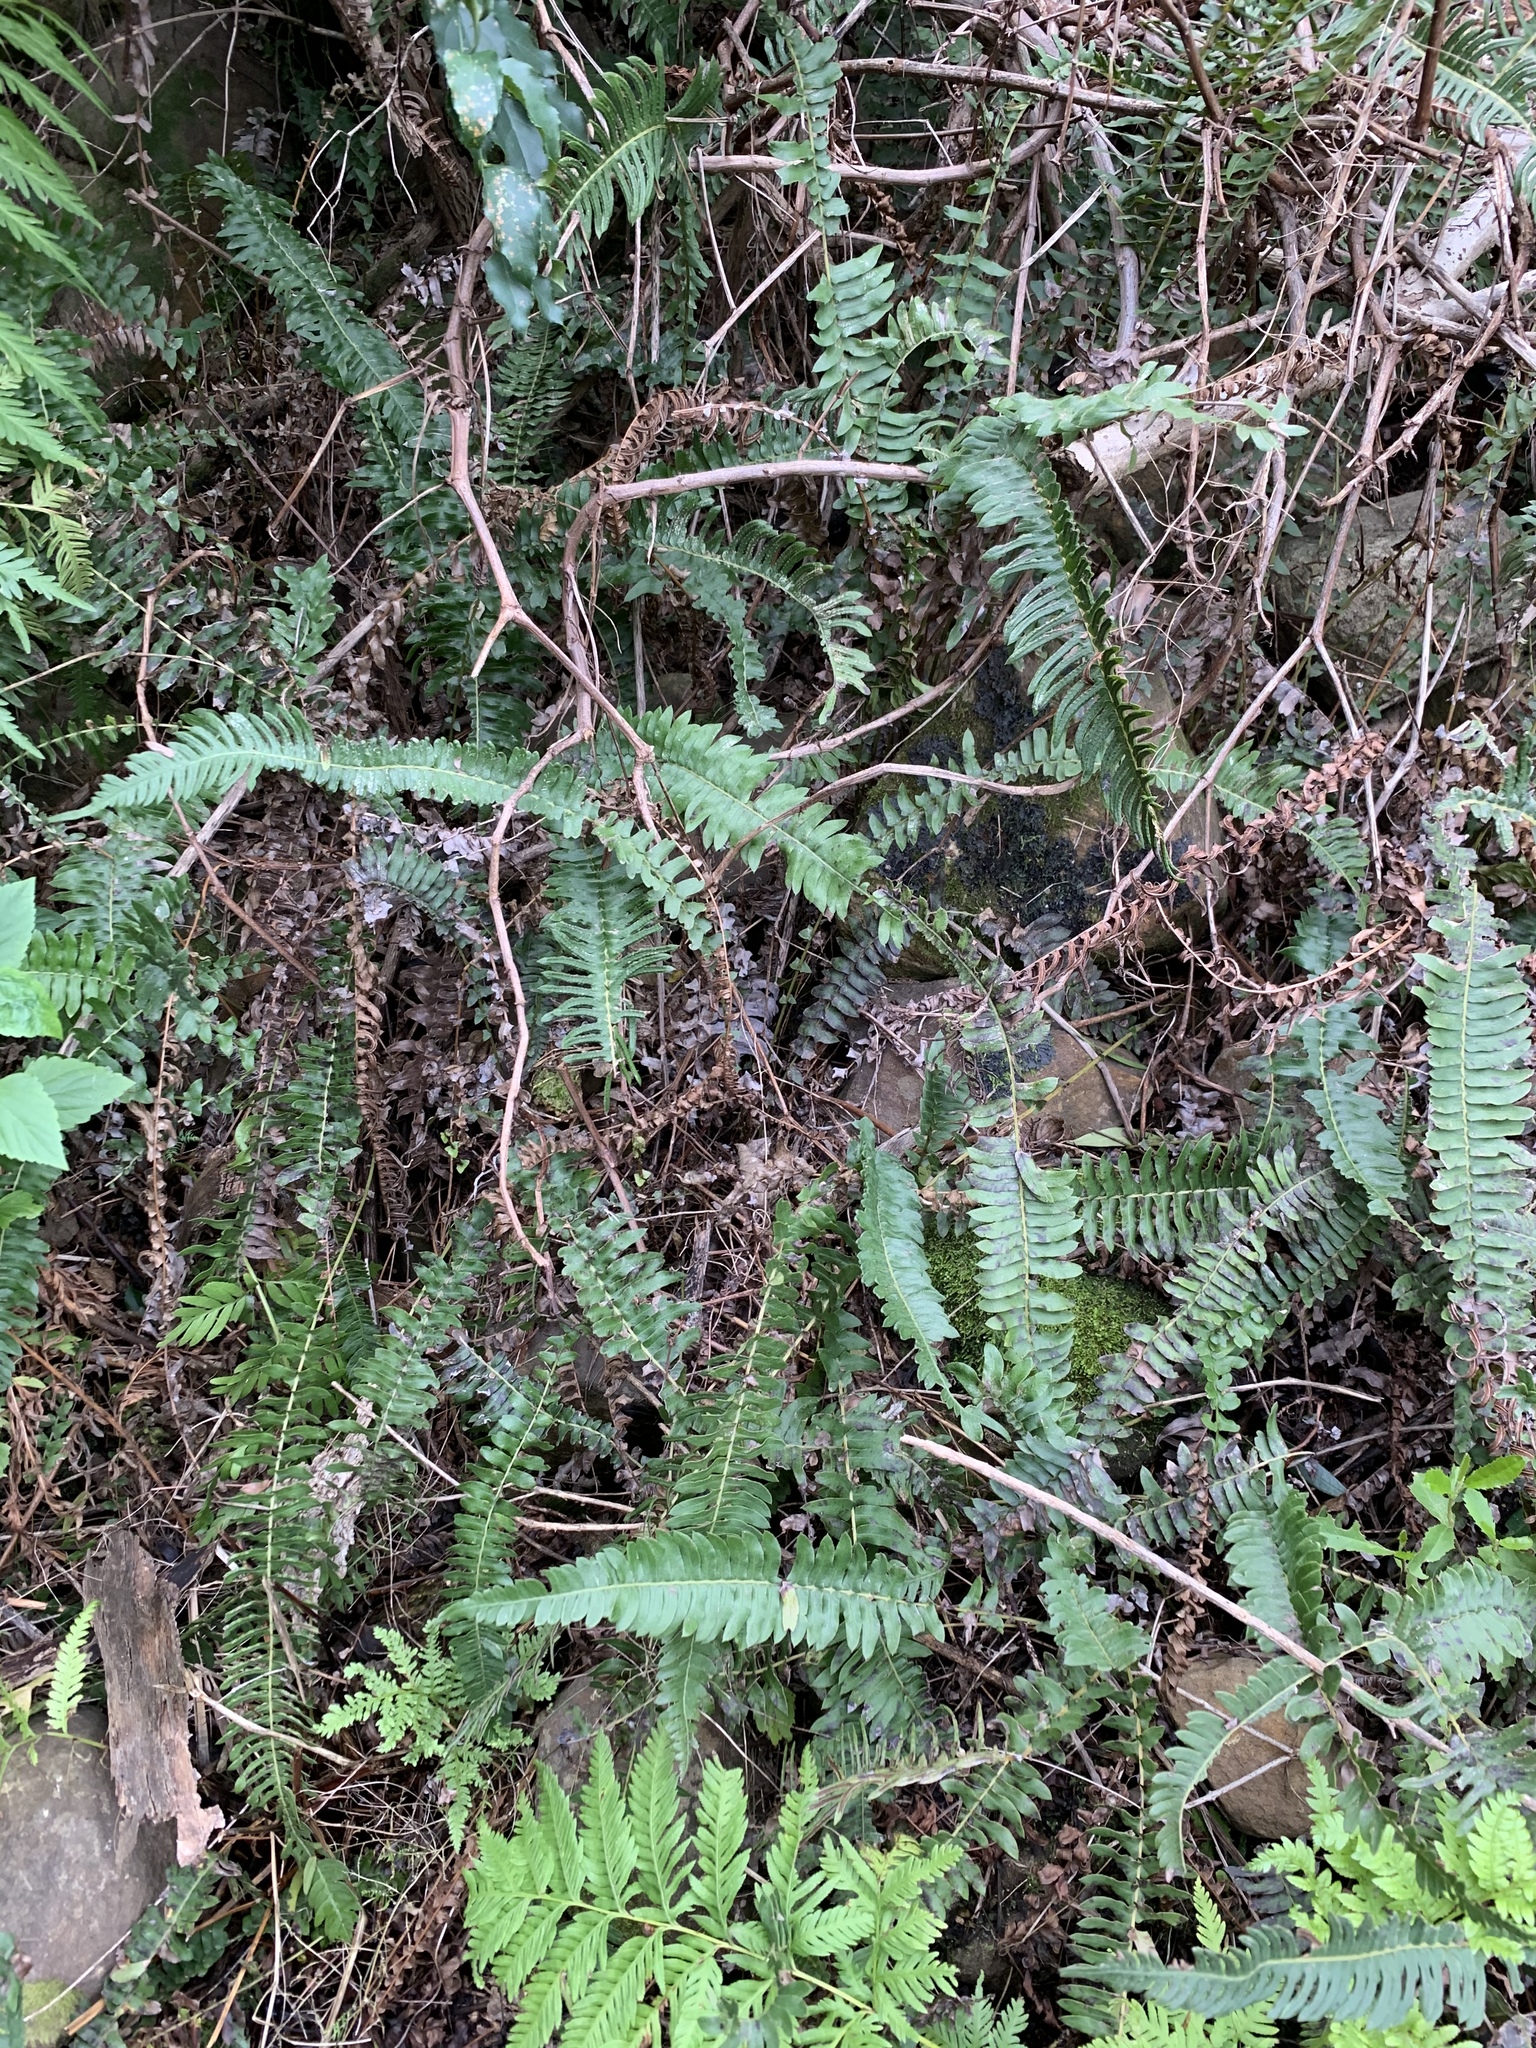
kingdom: Plantae
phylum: Tracheophyta
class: Polypodiopsida
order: Polypodiales
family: Blechnaceae
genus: Blechnum
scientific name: Blechnum punctulatum
